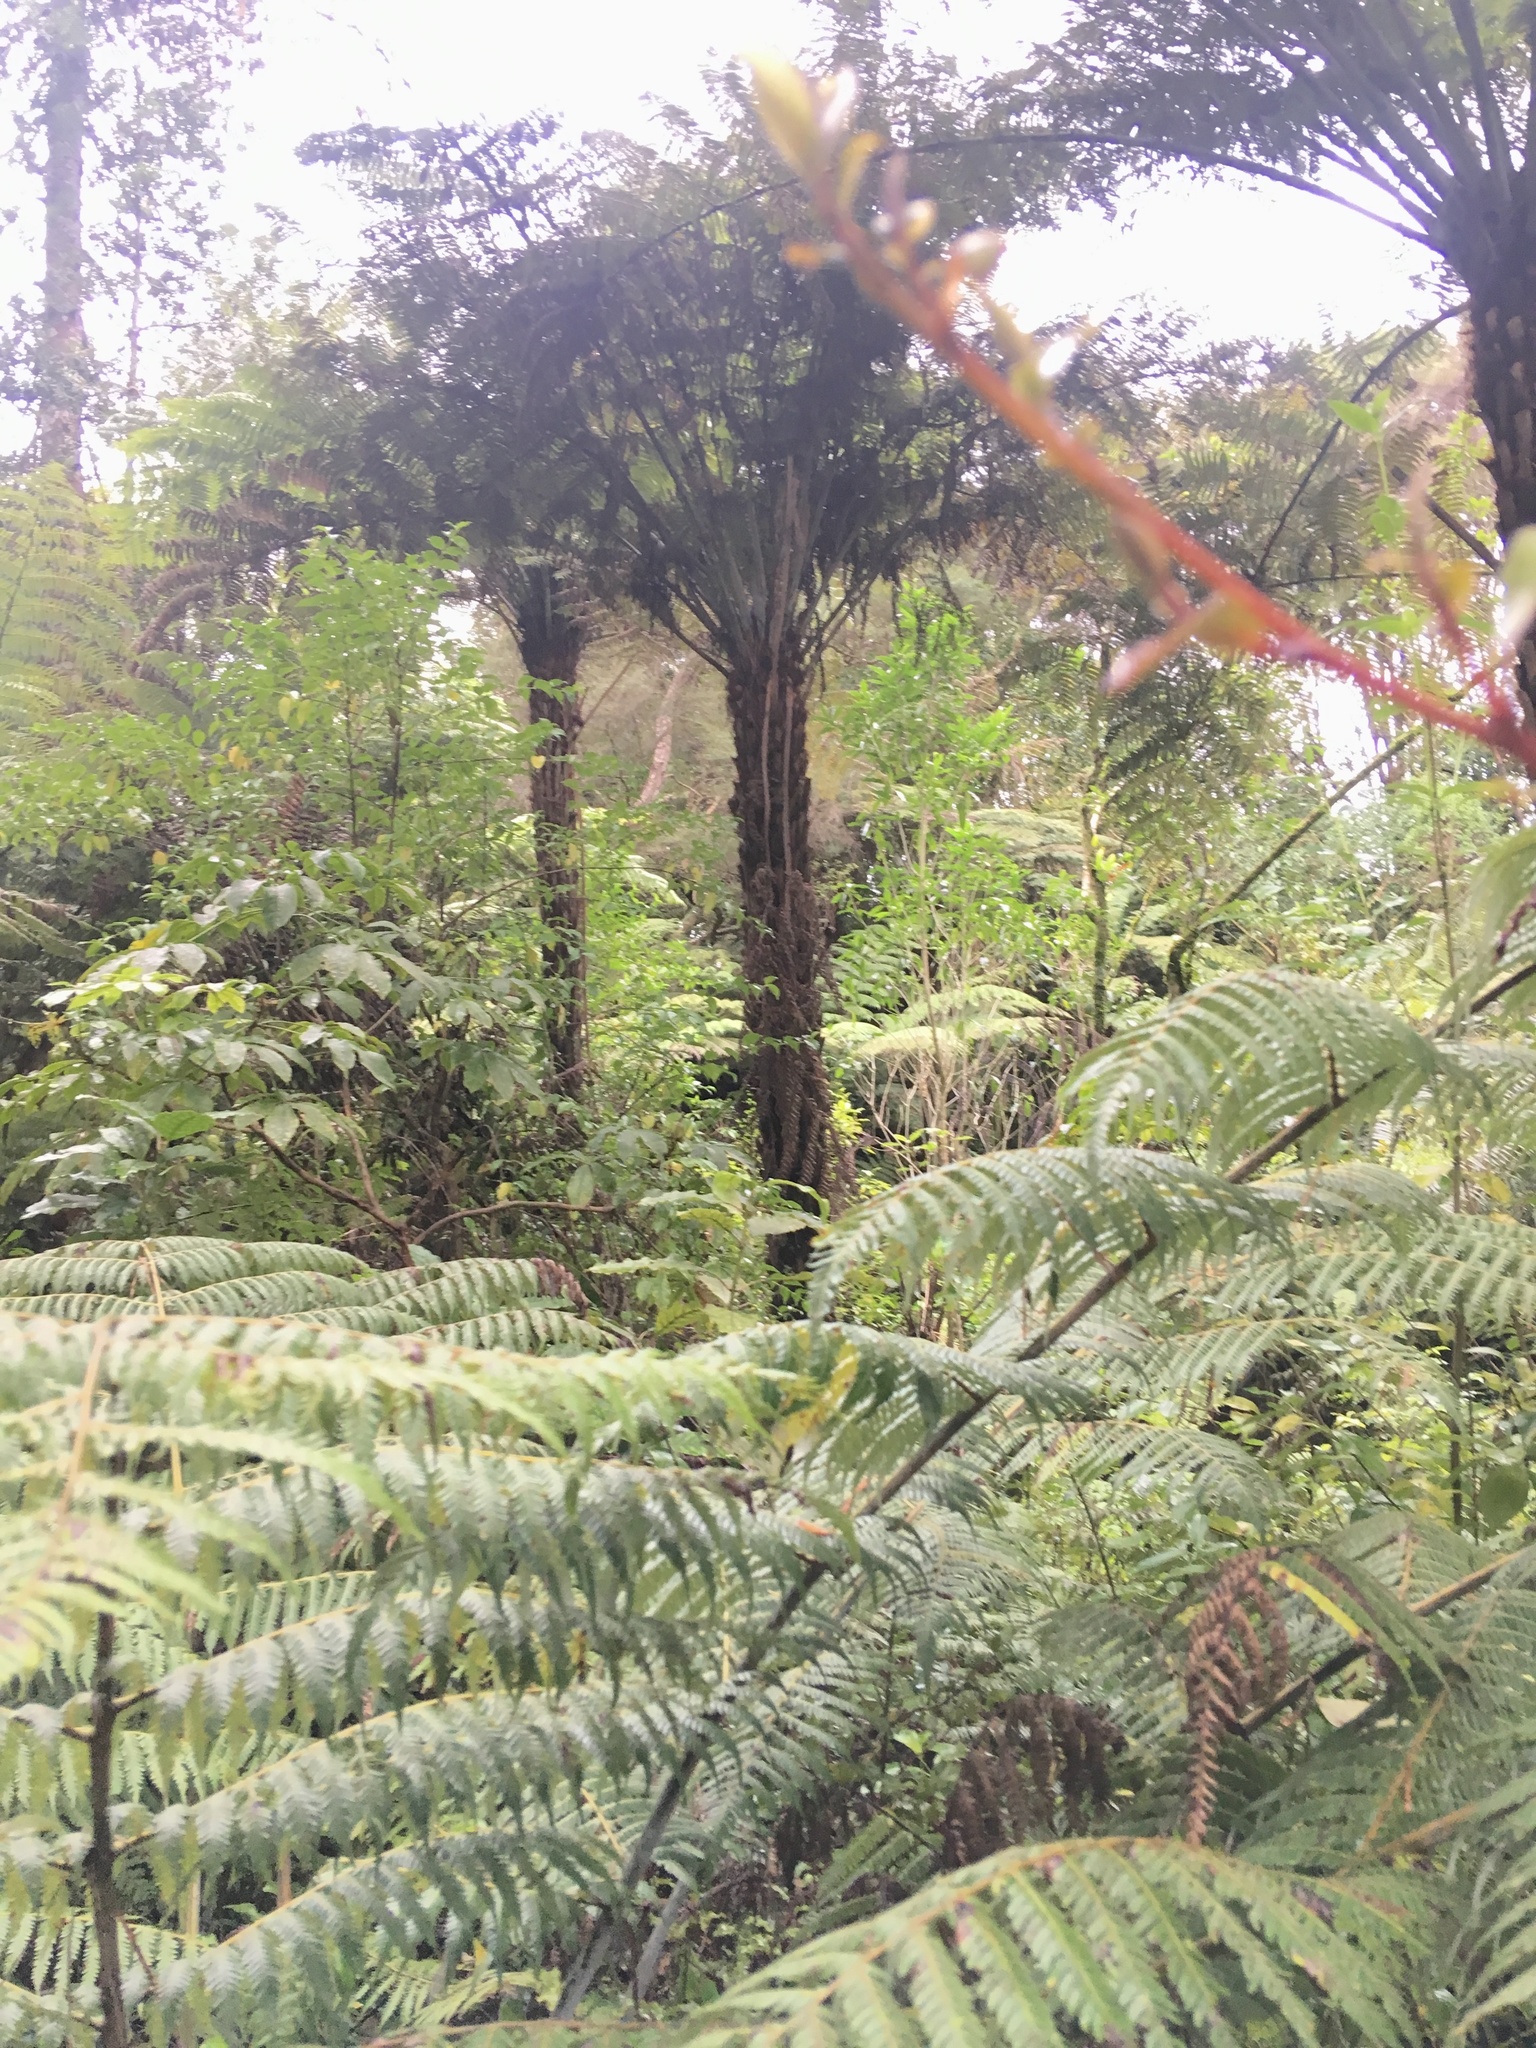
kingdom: Plantae
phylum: Tracheophyta
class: Polypodiopsida
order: Cyatheales
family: Cyatheaceae
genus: Alsophila
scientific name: Alsophila dealbata
